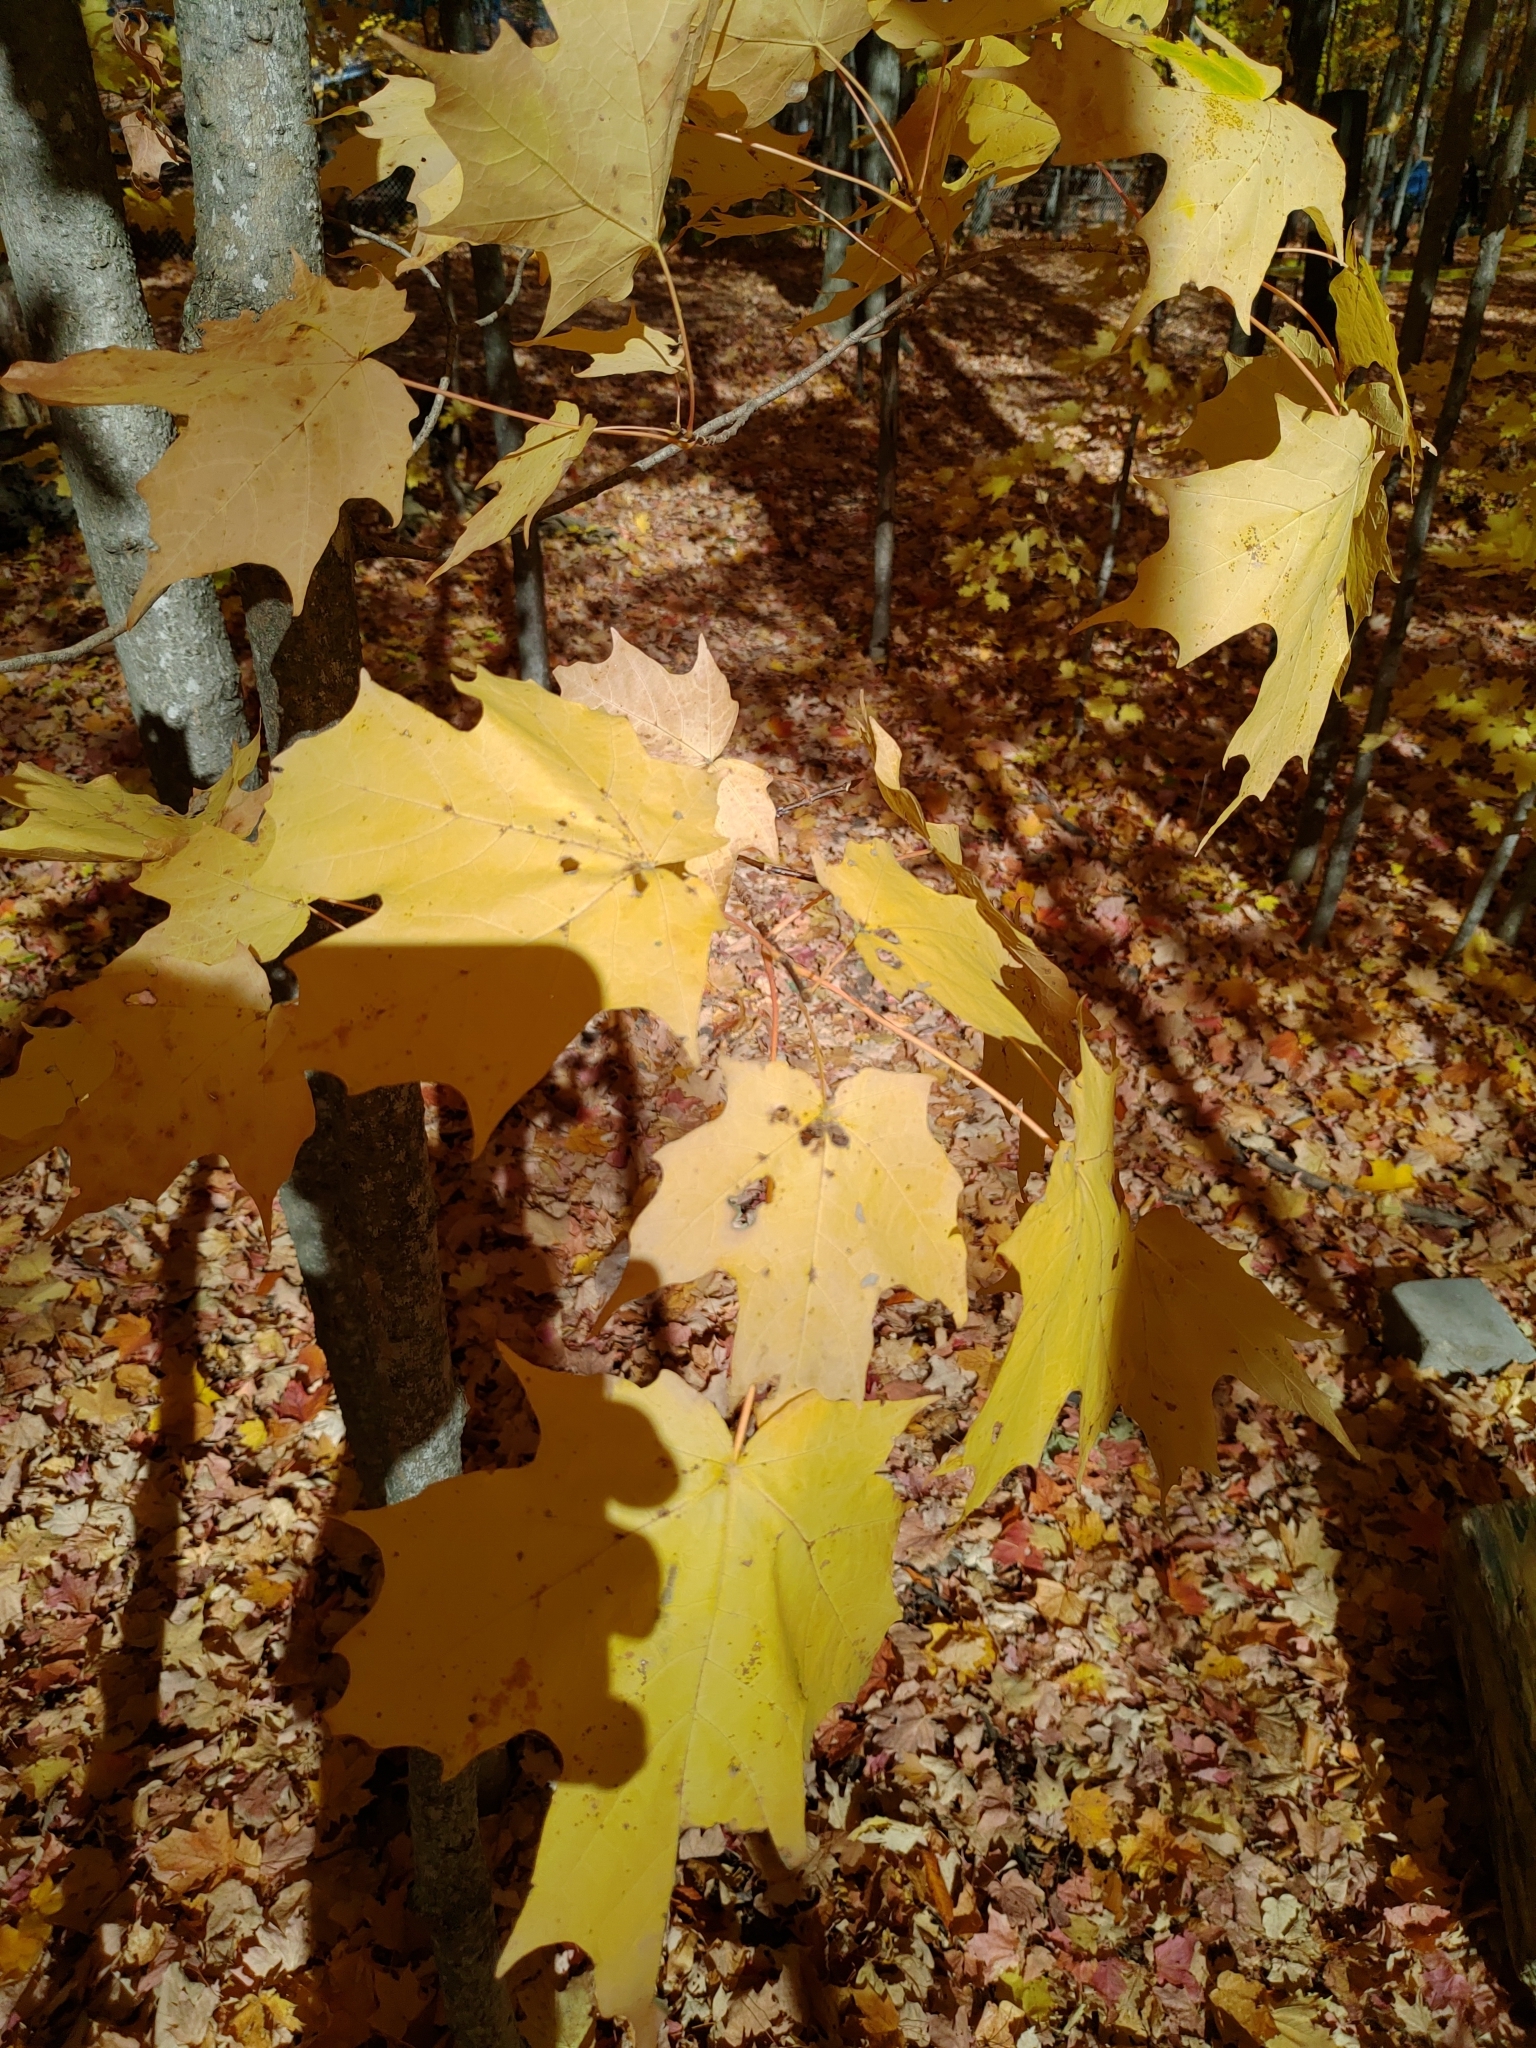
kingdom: Plantae
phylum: Tracheophyta
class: Magnoliopsida
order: Sapindales
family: Sapindaceae
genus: Acer
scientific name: Acer saccharum
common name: Sugar maple
